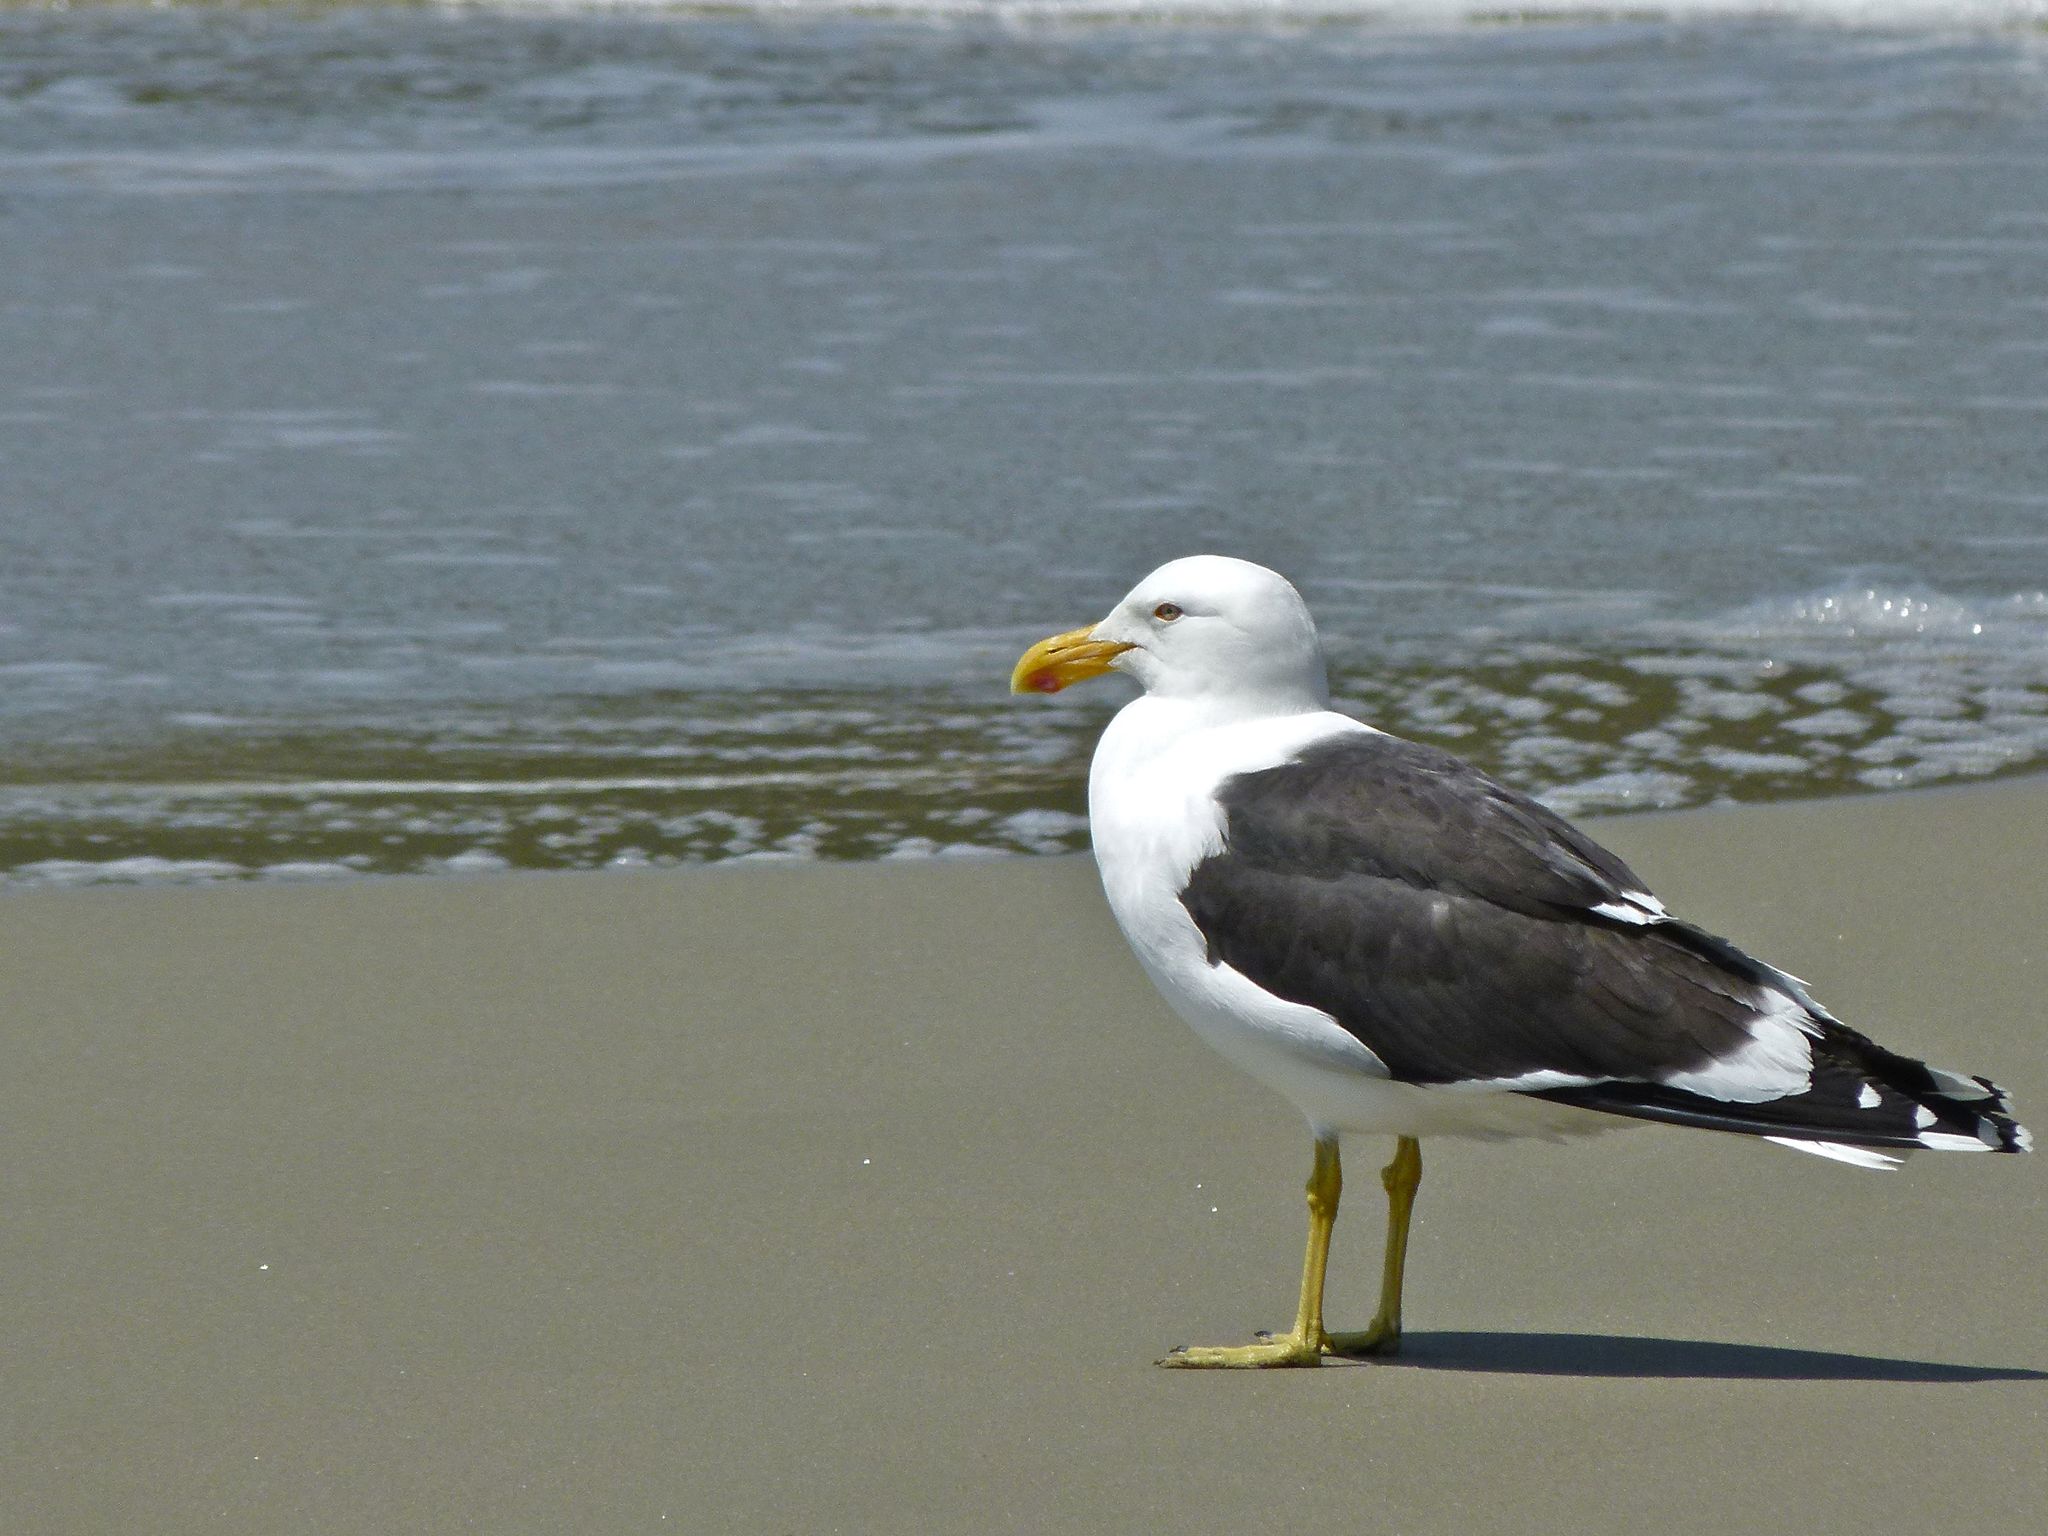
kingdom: Animalia
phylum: Chordata
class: Aves
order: Charadriiformes
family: Laridae
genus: Larus
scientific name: Larus dominicanus
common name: Kelp gull
